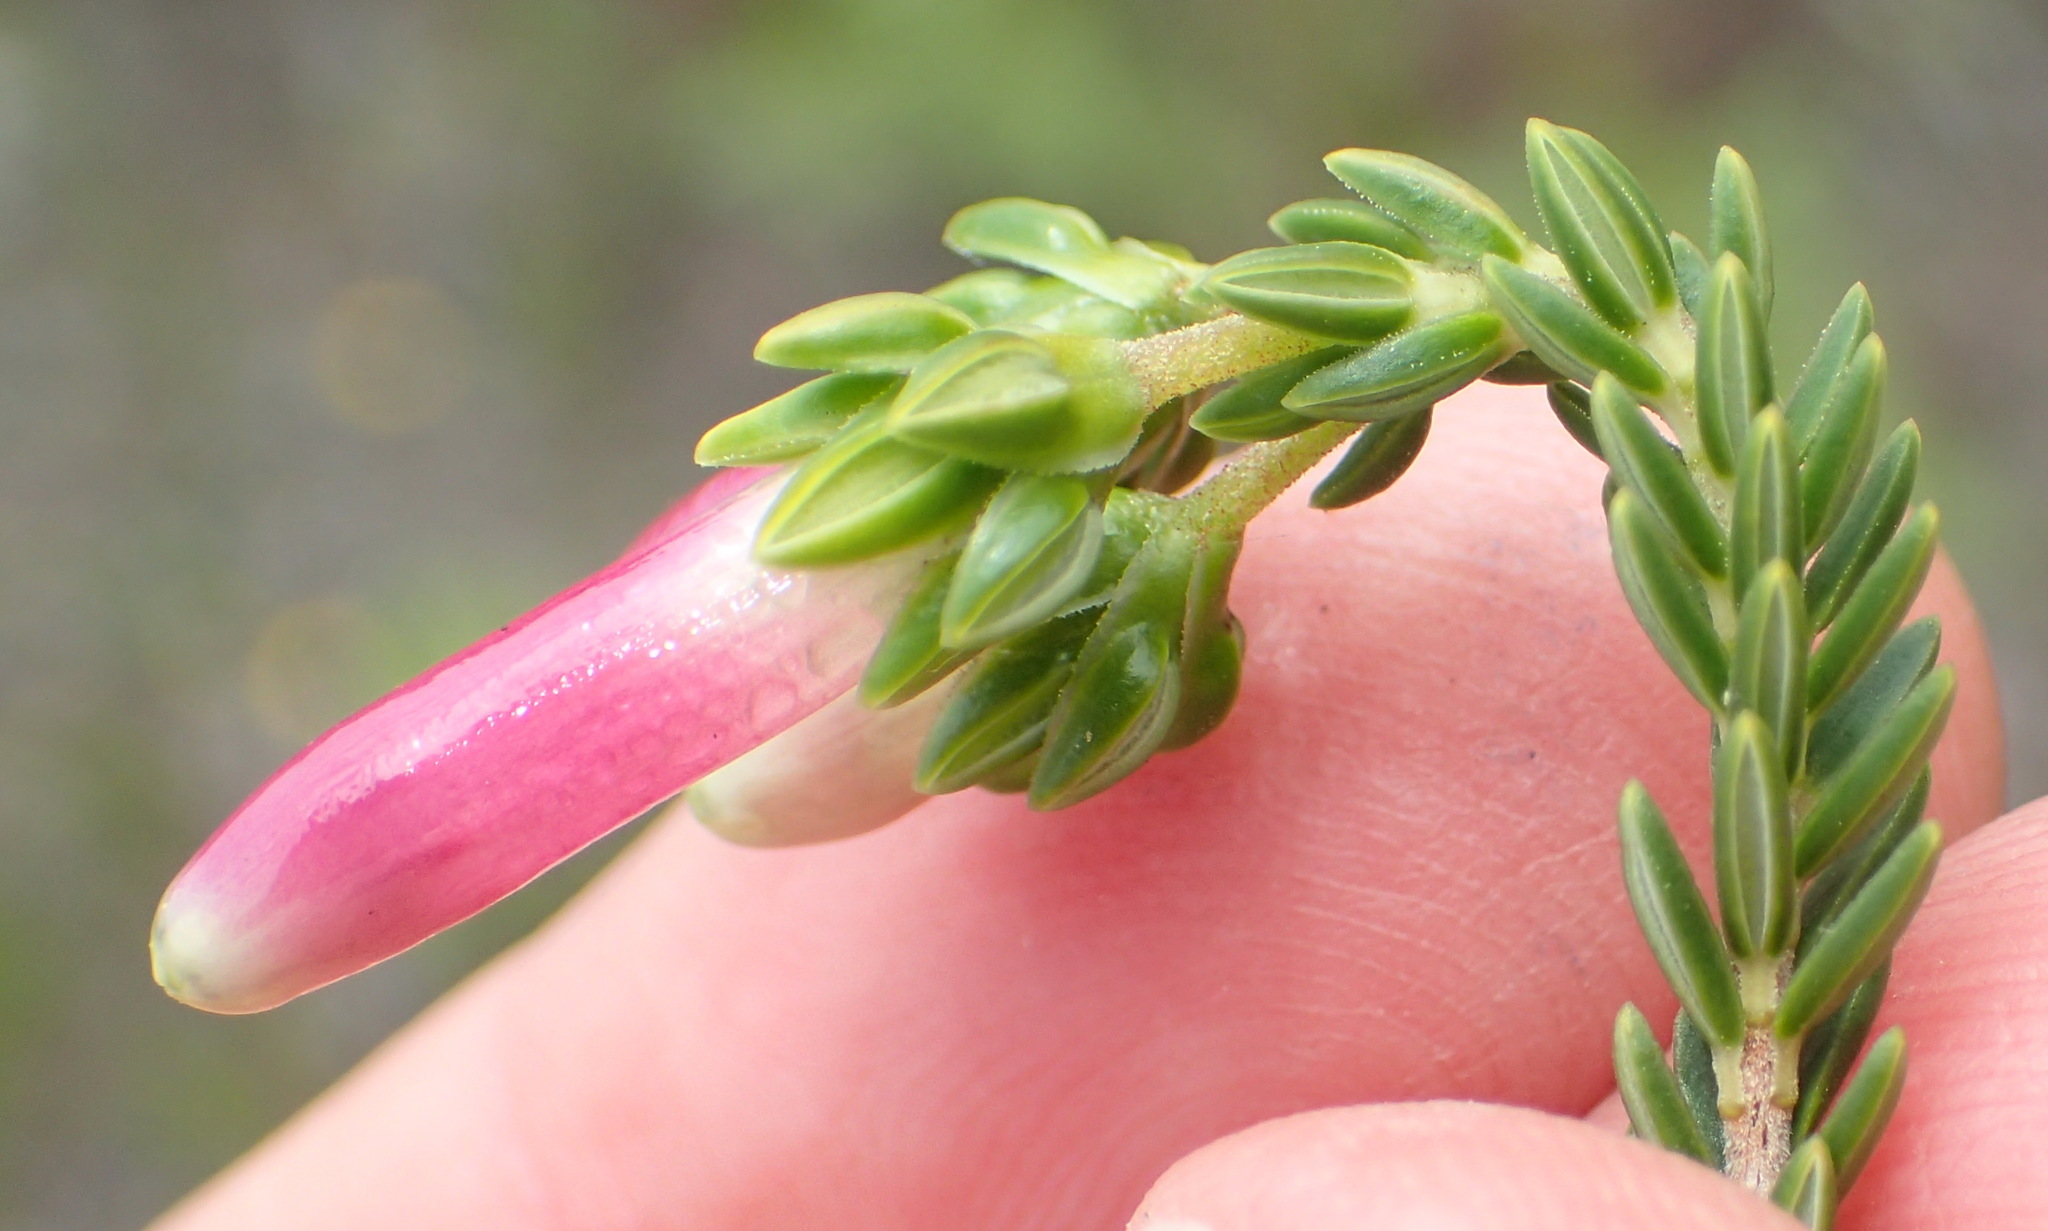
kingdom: Plantae
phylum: Tracheophyta
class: Magnoliopsida
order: Ericales
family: Ericaceae
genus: Erica
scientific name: Erica diaphana
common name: Heath
